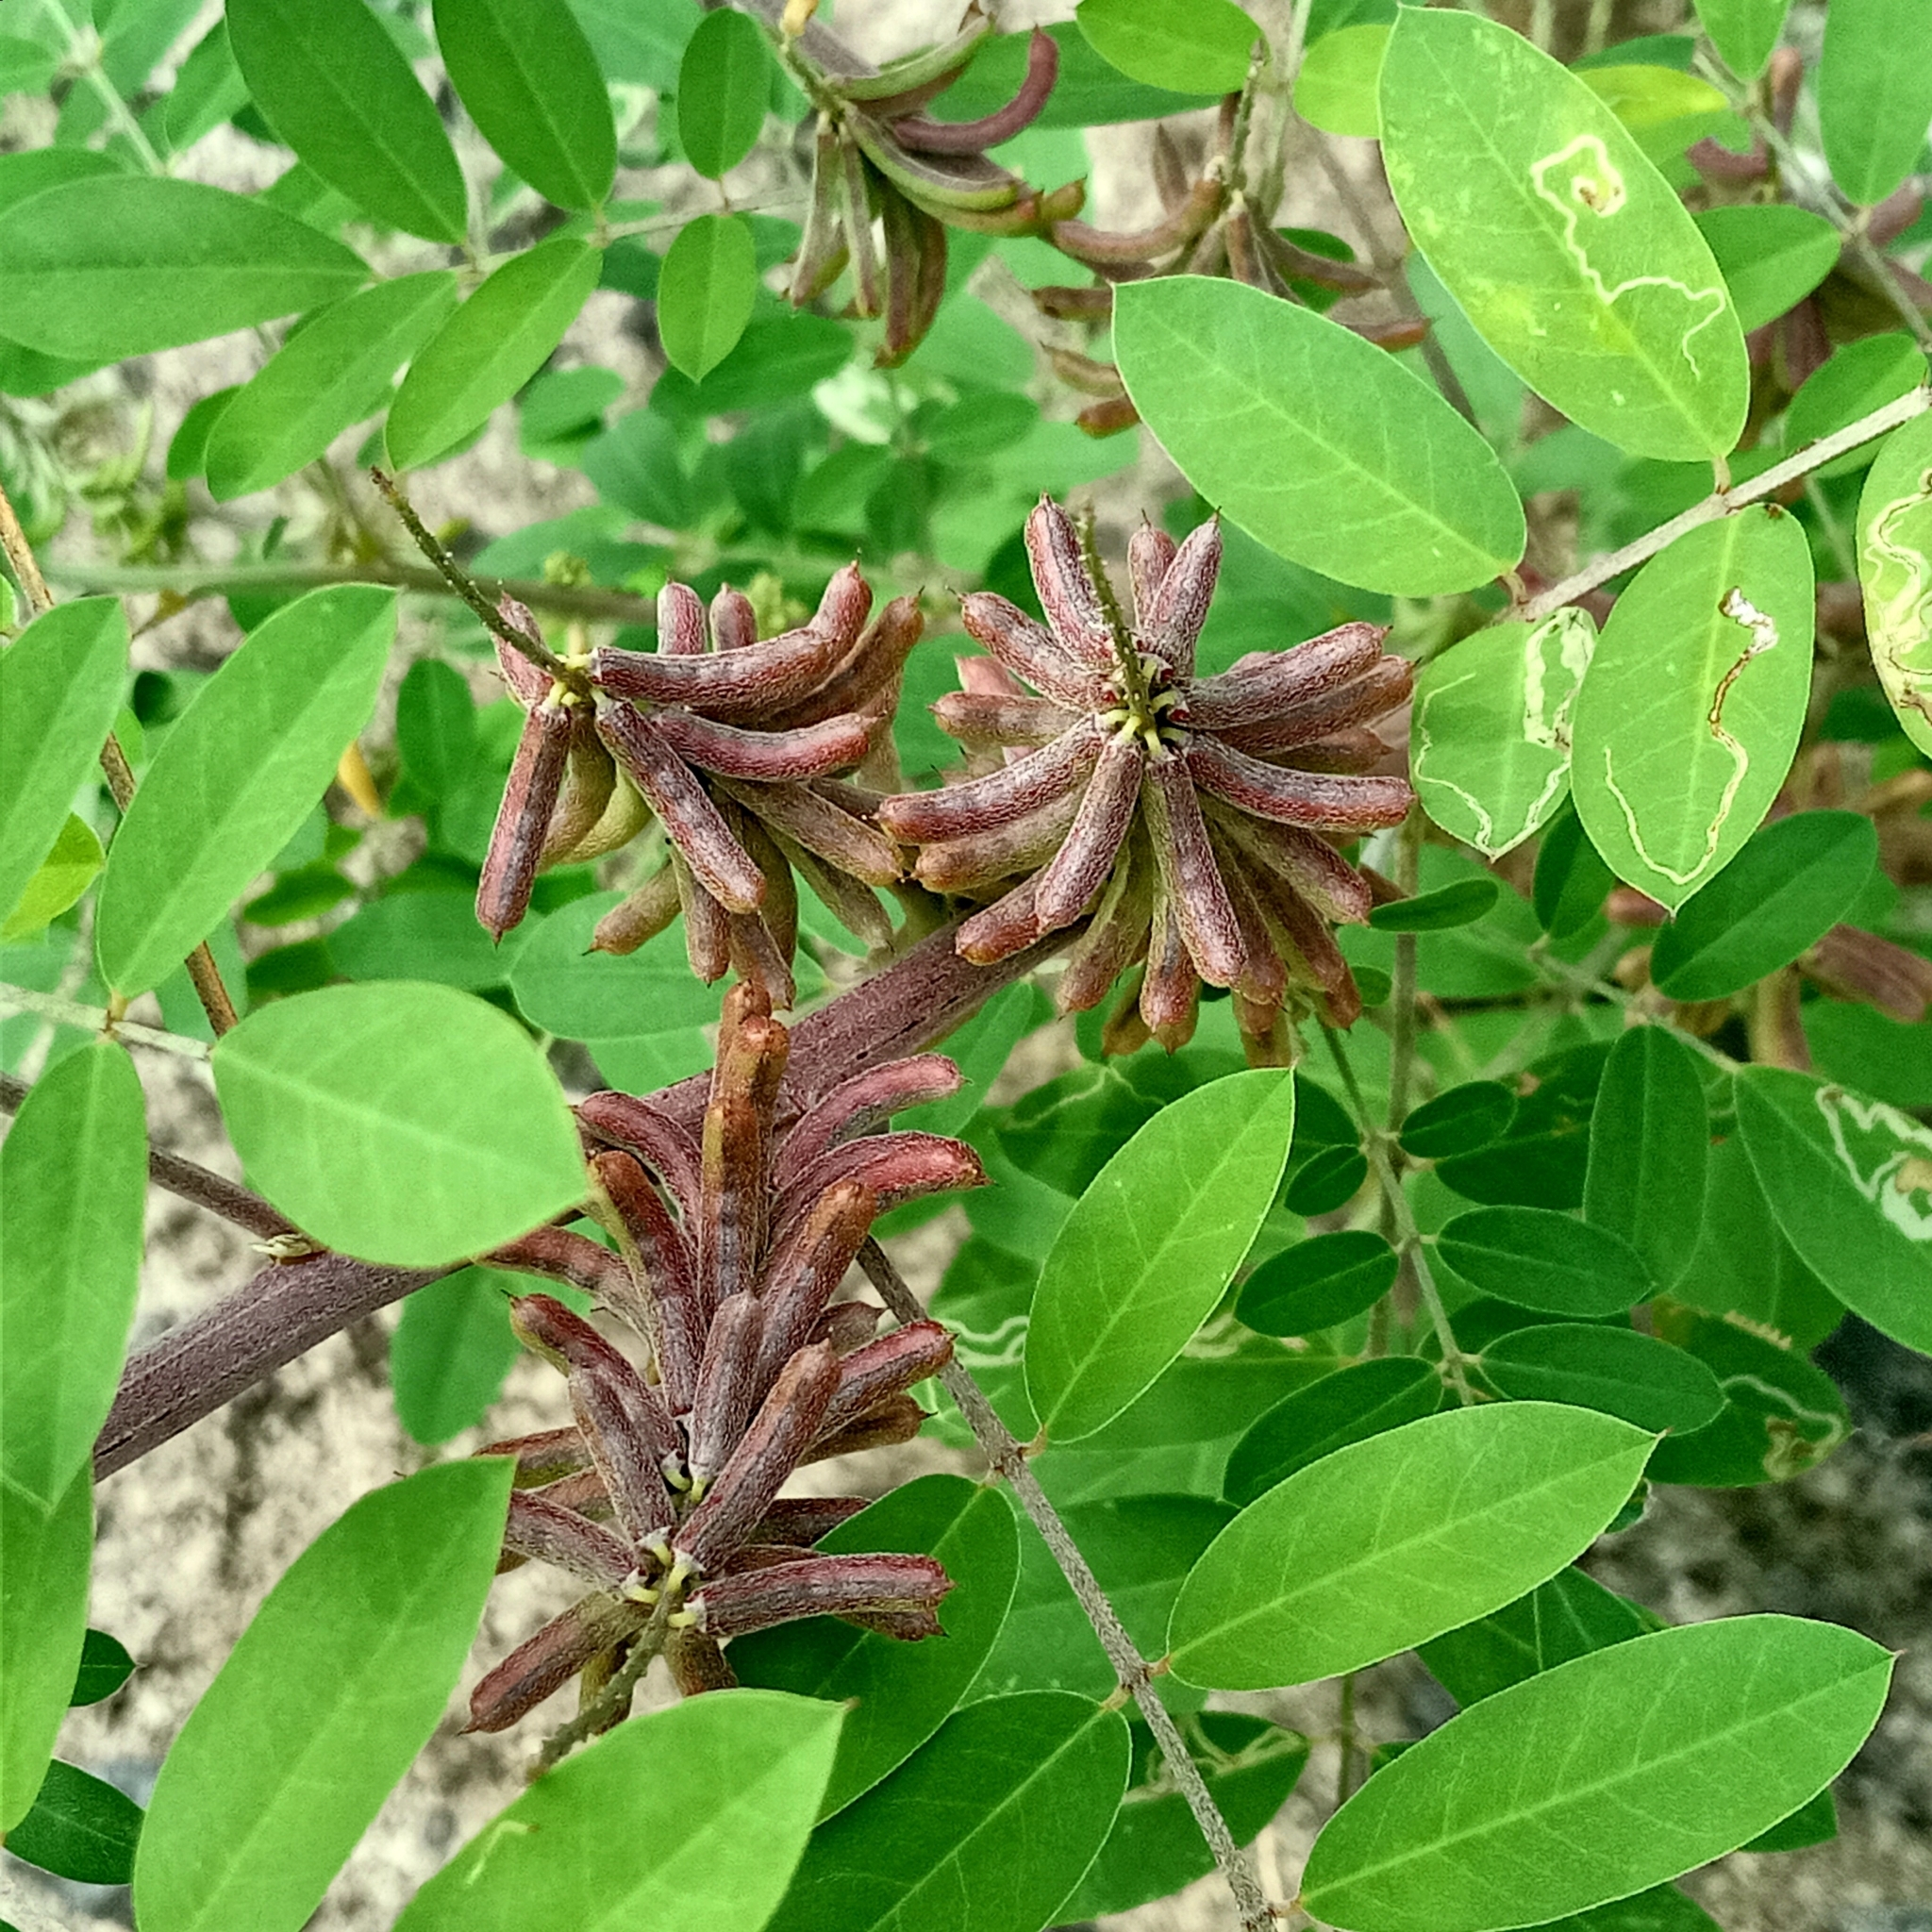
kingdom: Plantae
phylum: Tracheophyta
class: Magnoliopsida
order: Fabales
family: Fabaceae
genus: Indigofera
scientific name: Indigofera suffruticosa
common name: Anil de pasto
